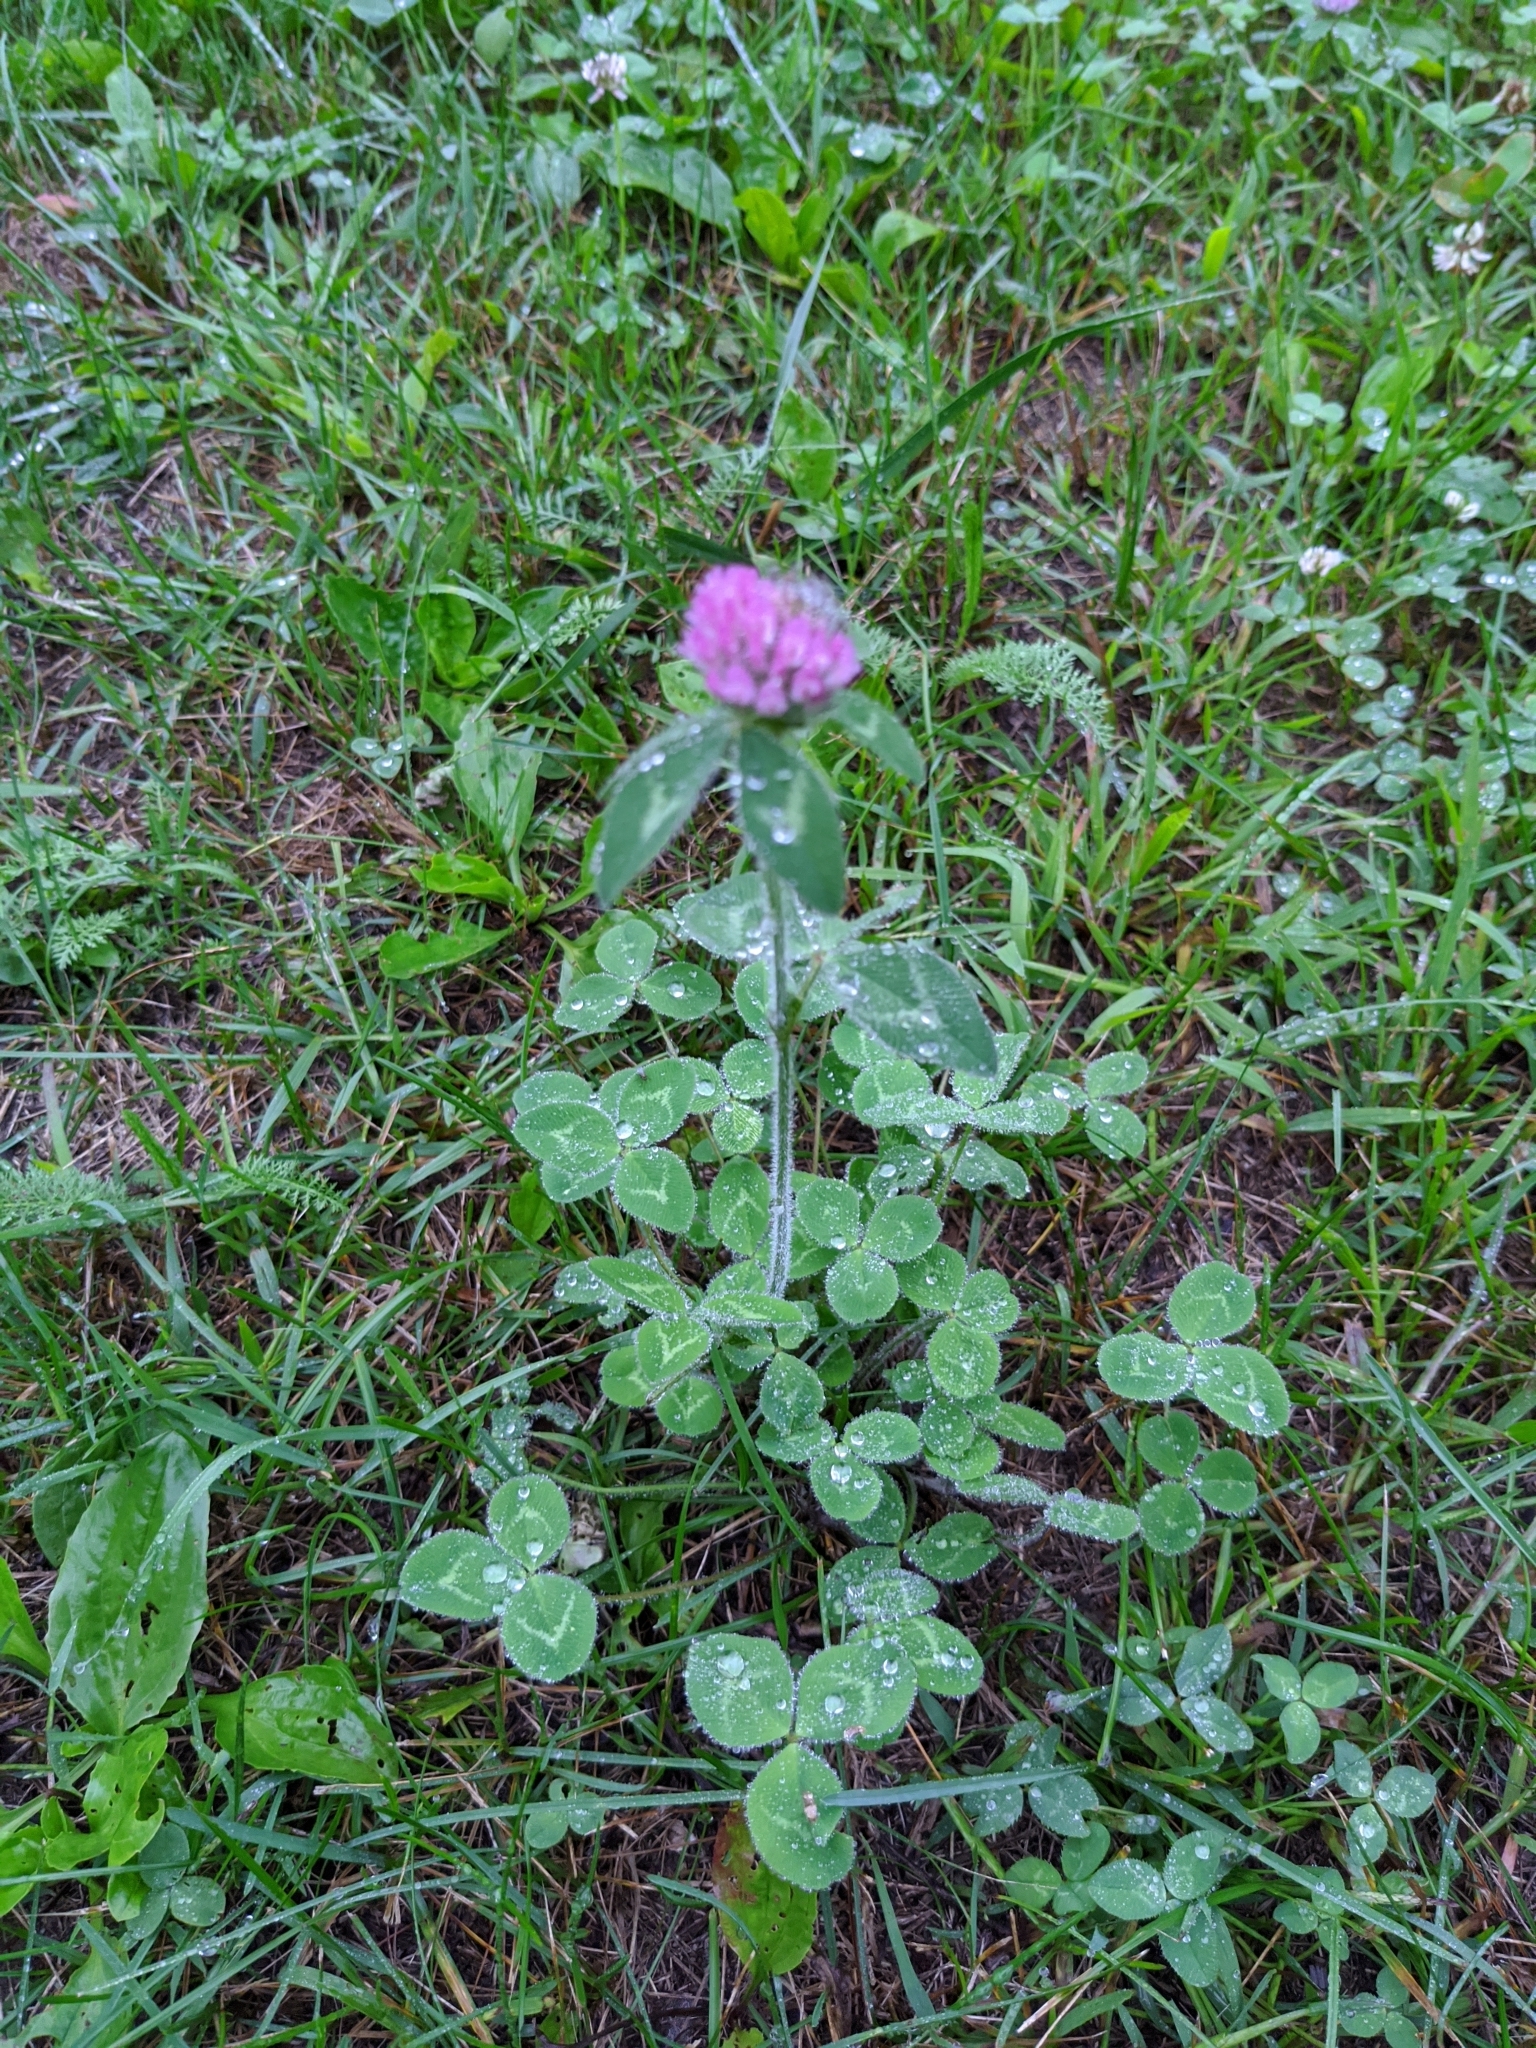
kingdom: Plantae
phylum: Tracheophyta
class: Magnoliopsida
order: Fabales
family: Fabaceae
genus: Trifolium
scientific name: Trifolium pratense
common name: Red clover
